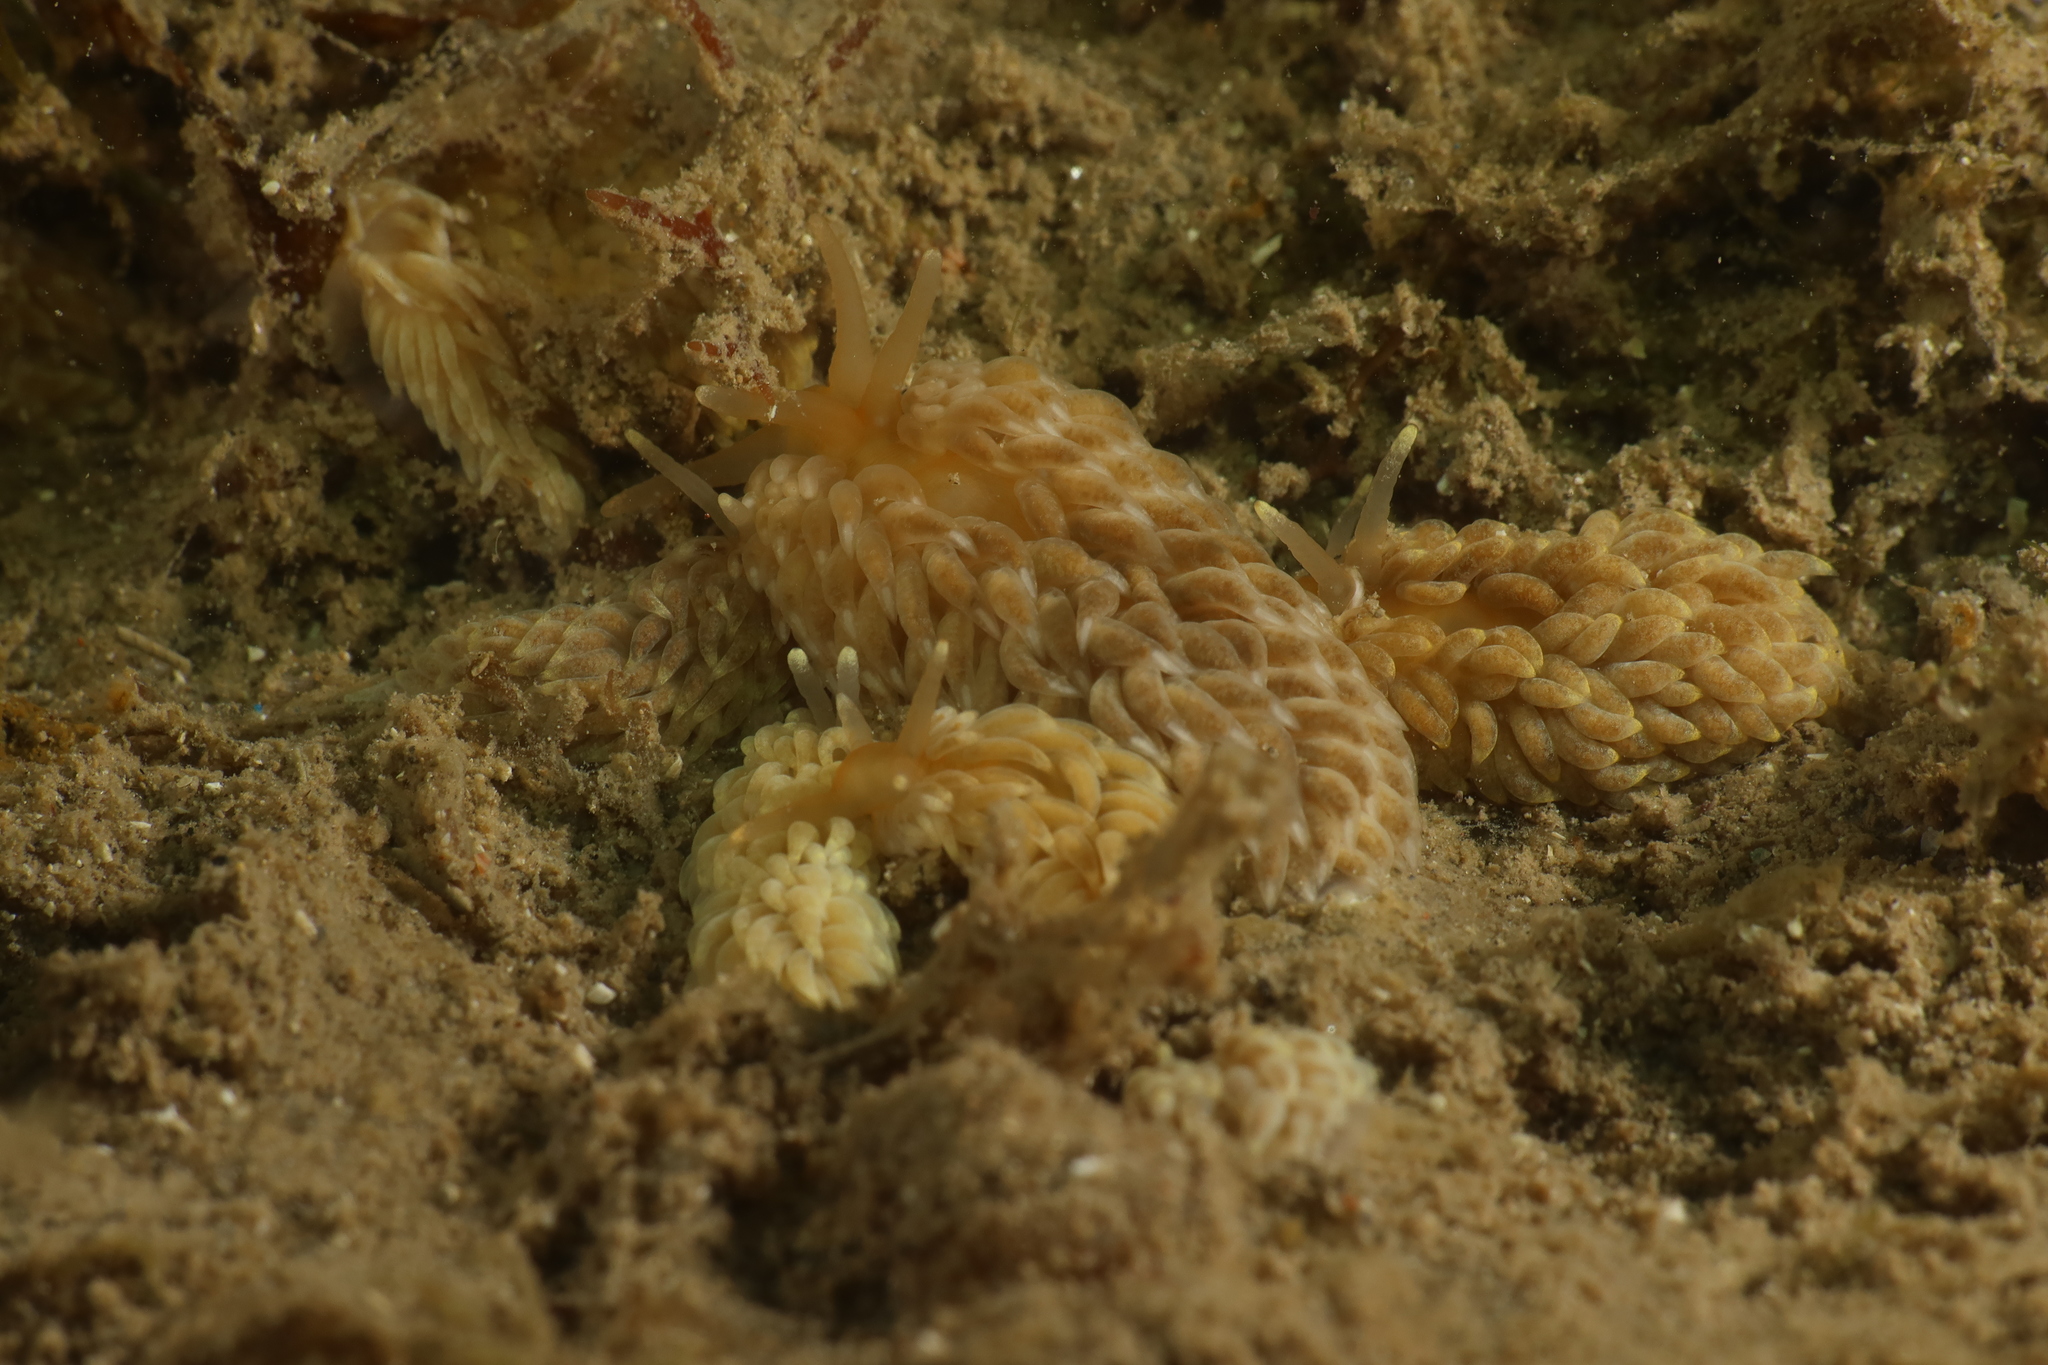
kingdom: Animalia
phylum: Mollusca
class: Gastropoda
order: Nudibranchia
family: Aeolidiidae
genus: Aeolidiella
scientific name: Aeolidiella alderi
